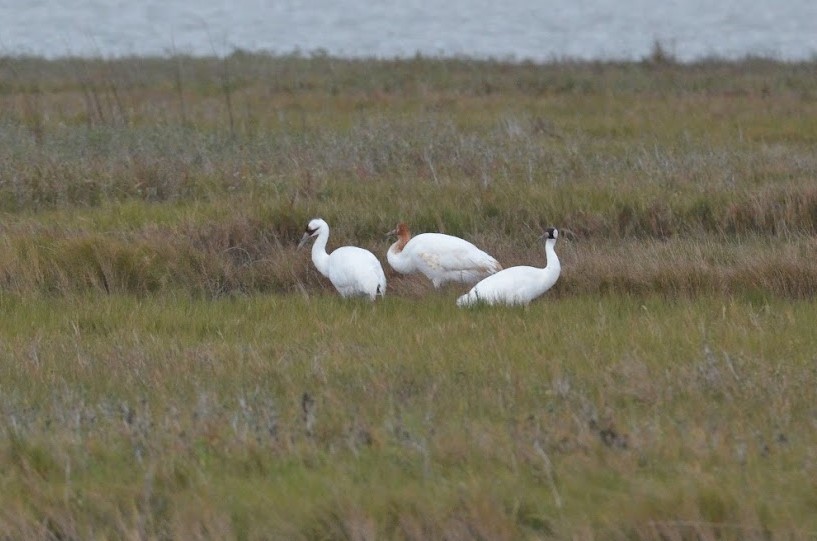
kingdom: Animalia
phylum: Chordata
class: Aves
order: Gruiformes
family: Gruidae
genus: Grus
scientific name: Grus americana
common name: Whooping crane
